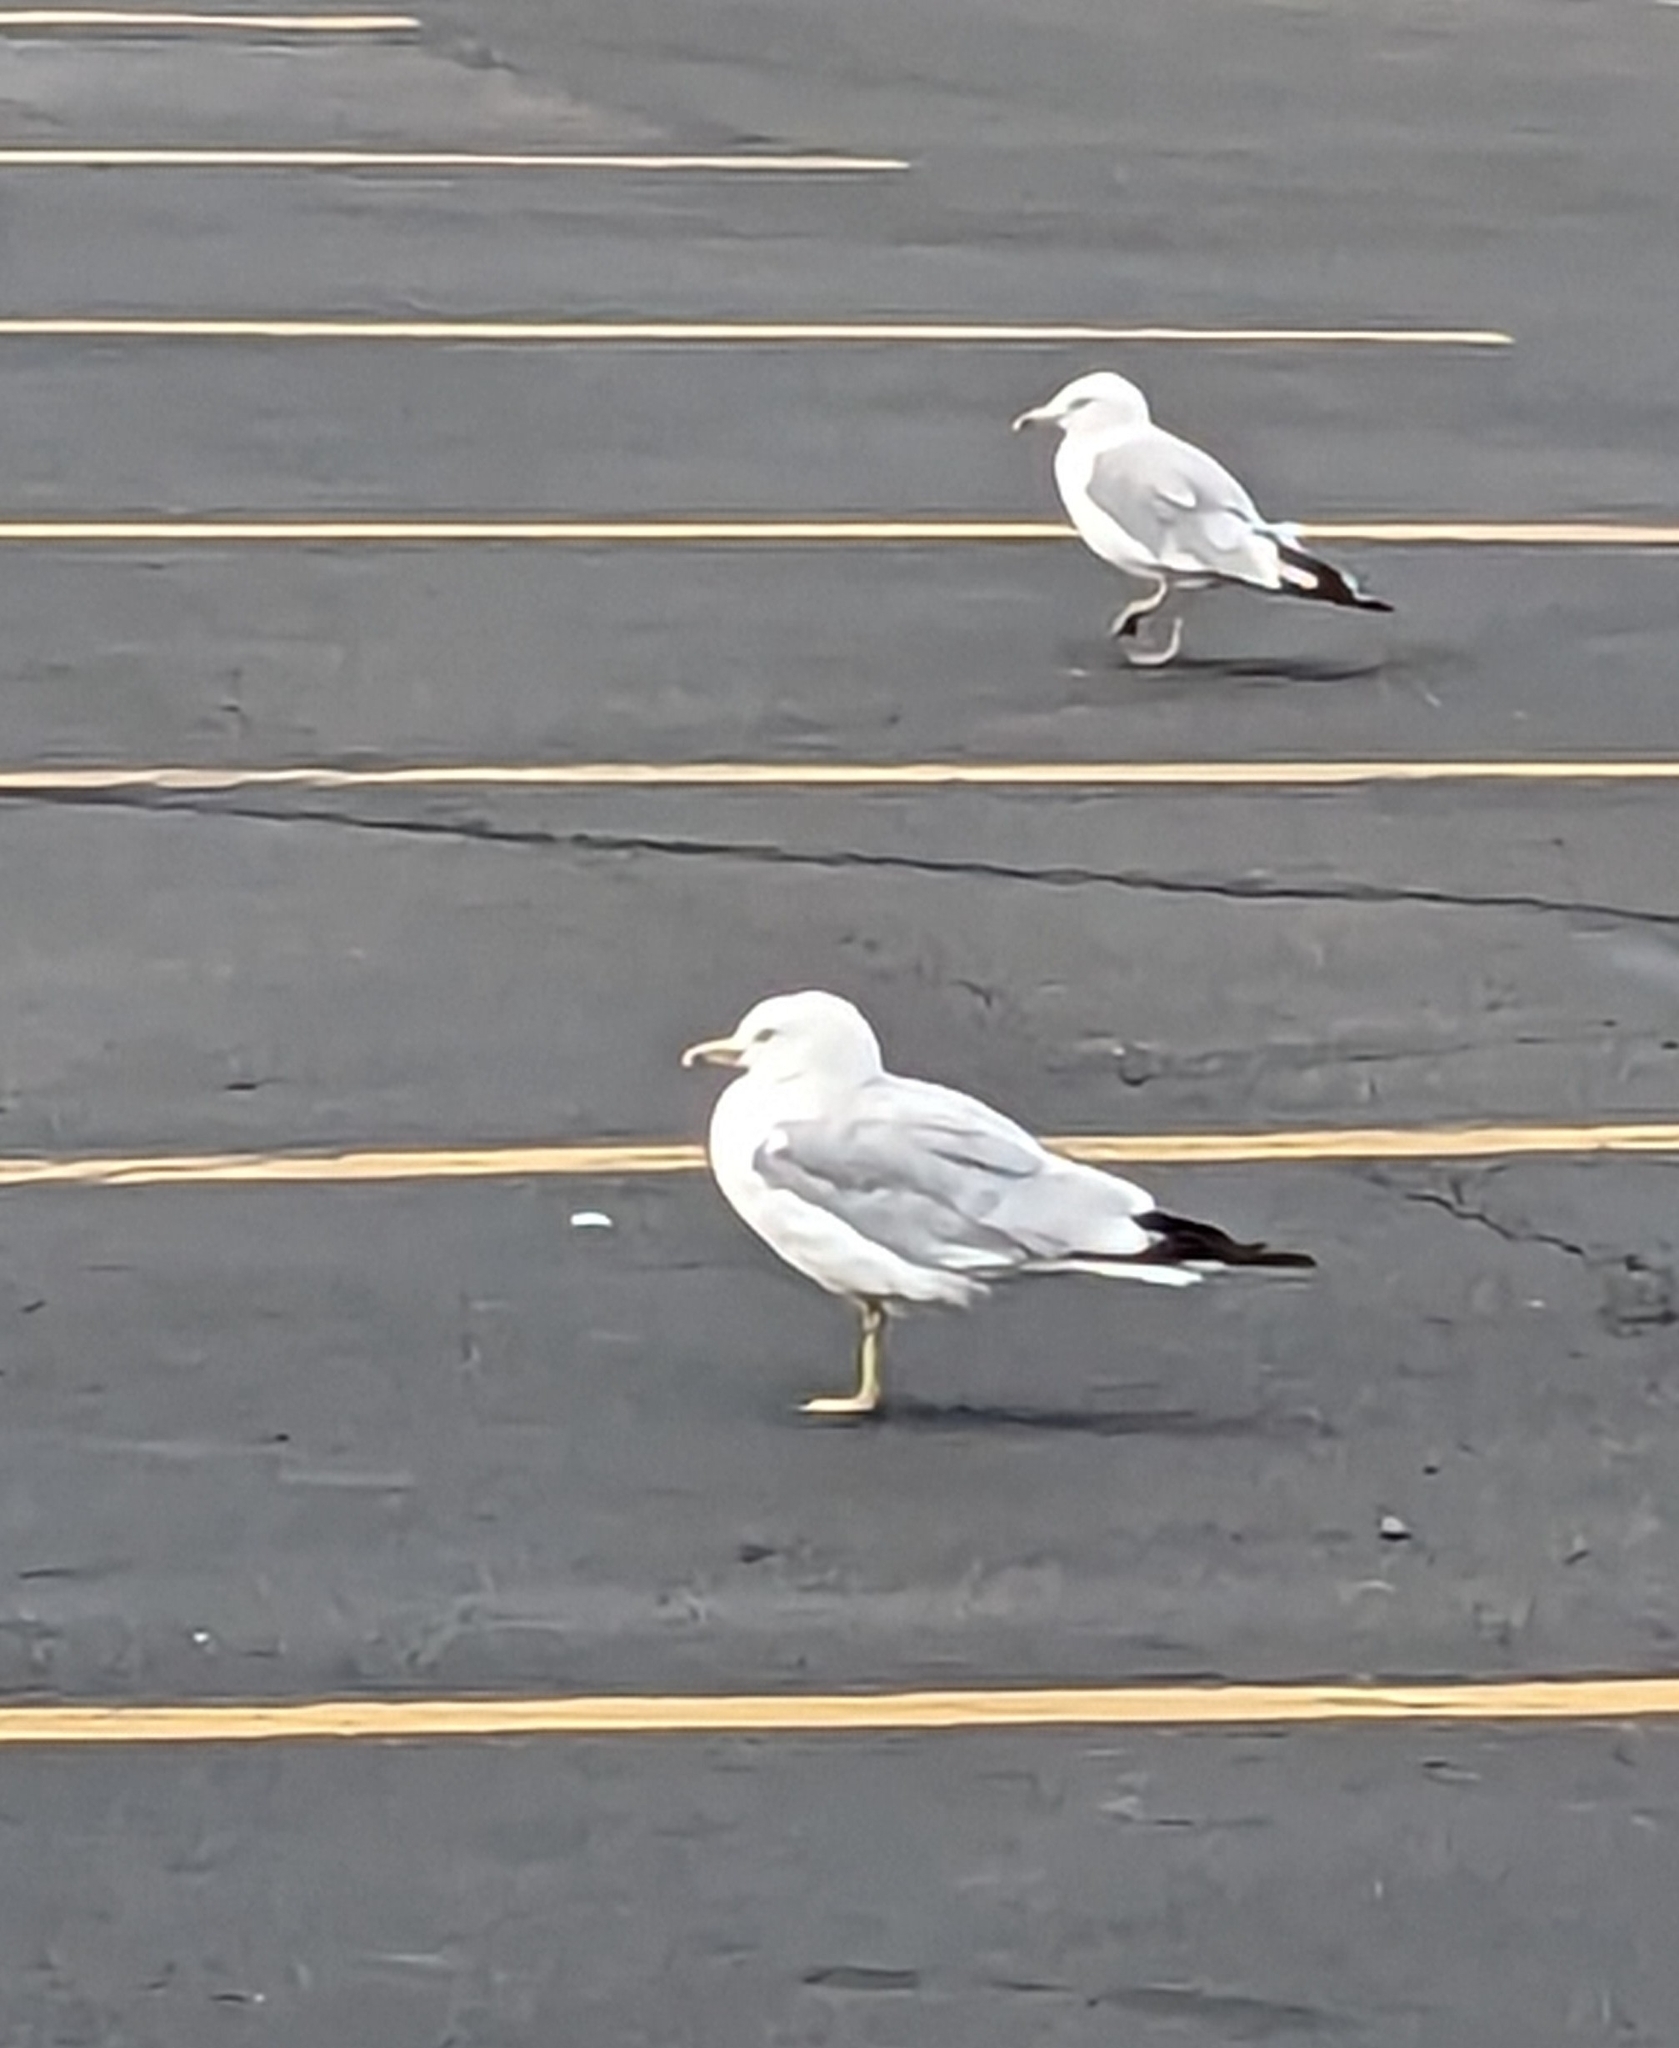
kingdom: Animalia
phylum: Chordata
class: Aves
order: Charadriiformes
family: Laridae
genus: Larus
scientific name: Larus delawarensis
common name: Ring-billed gull
